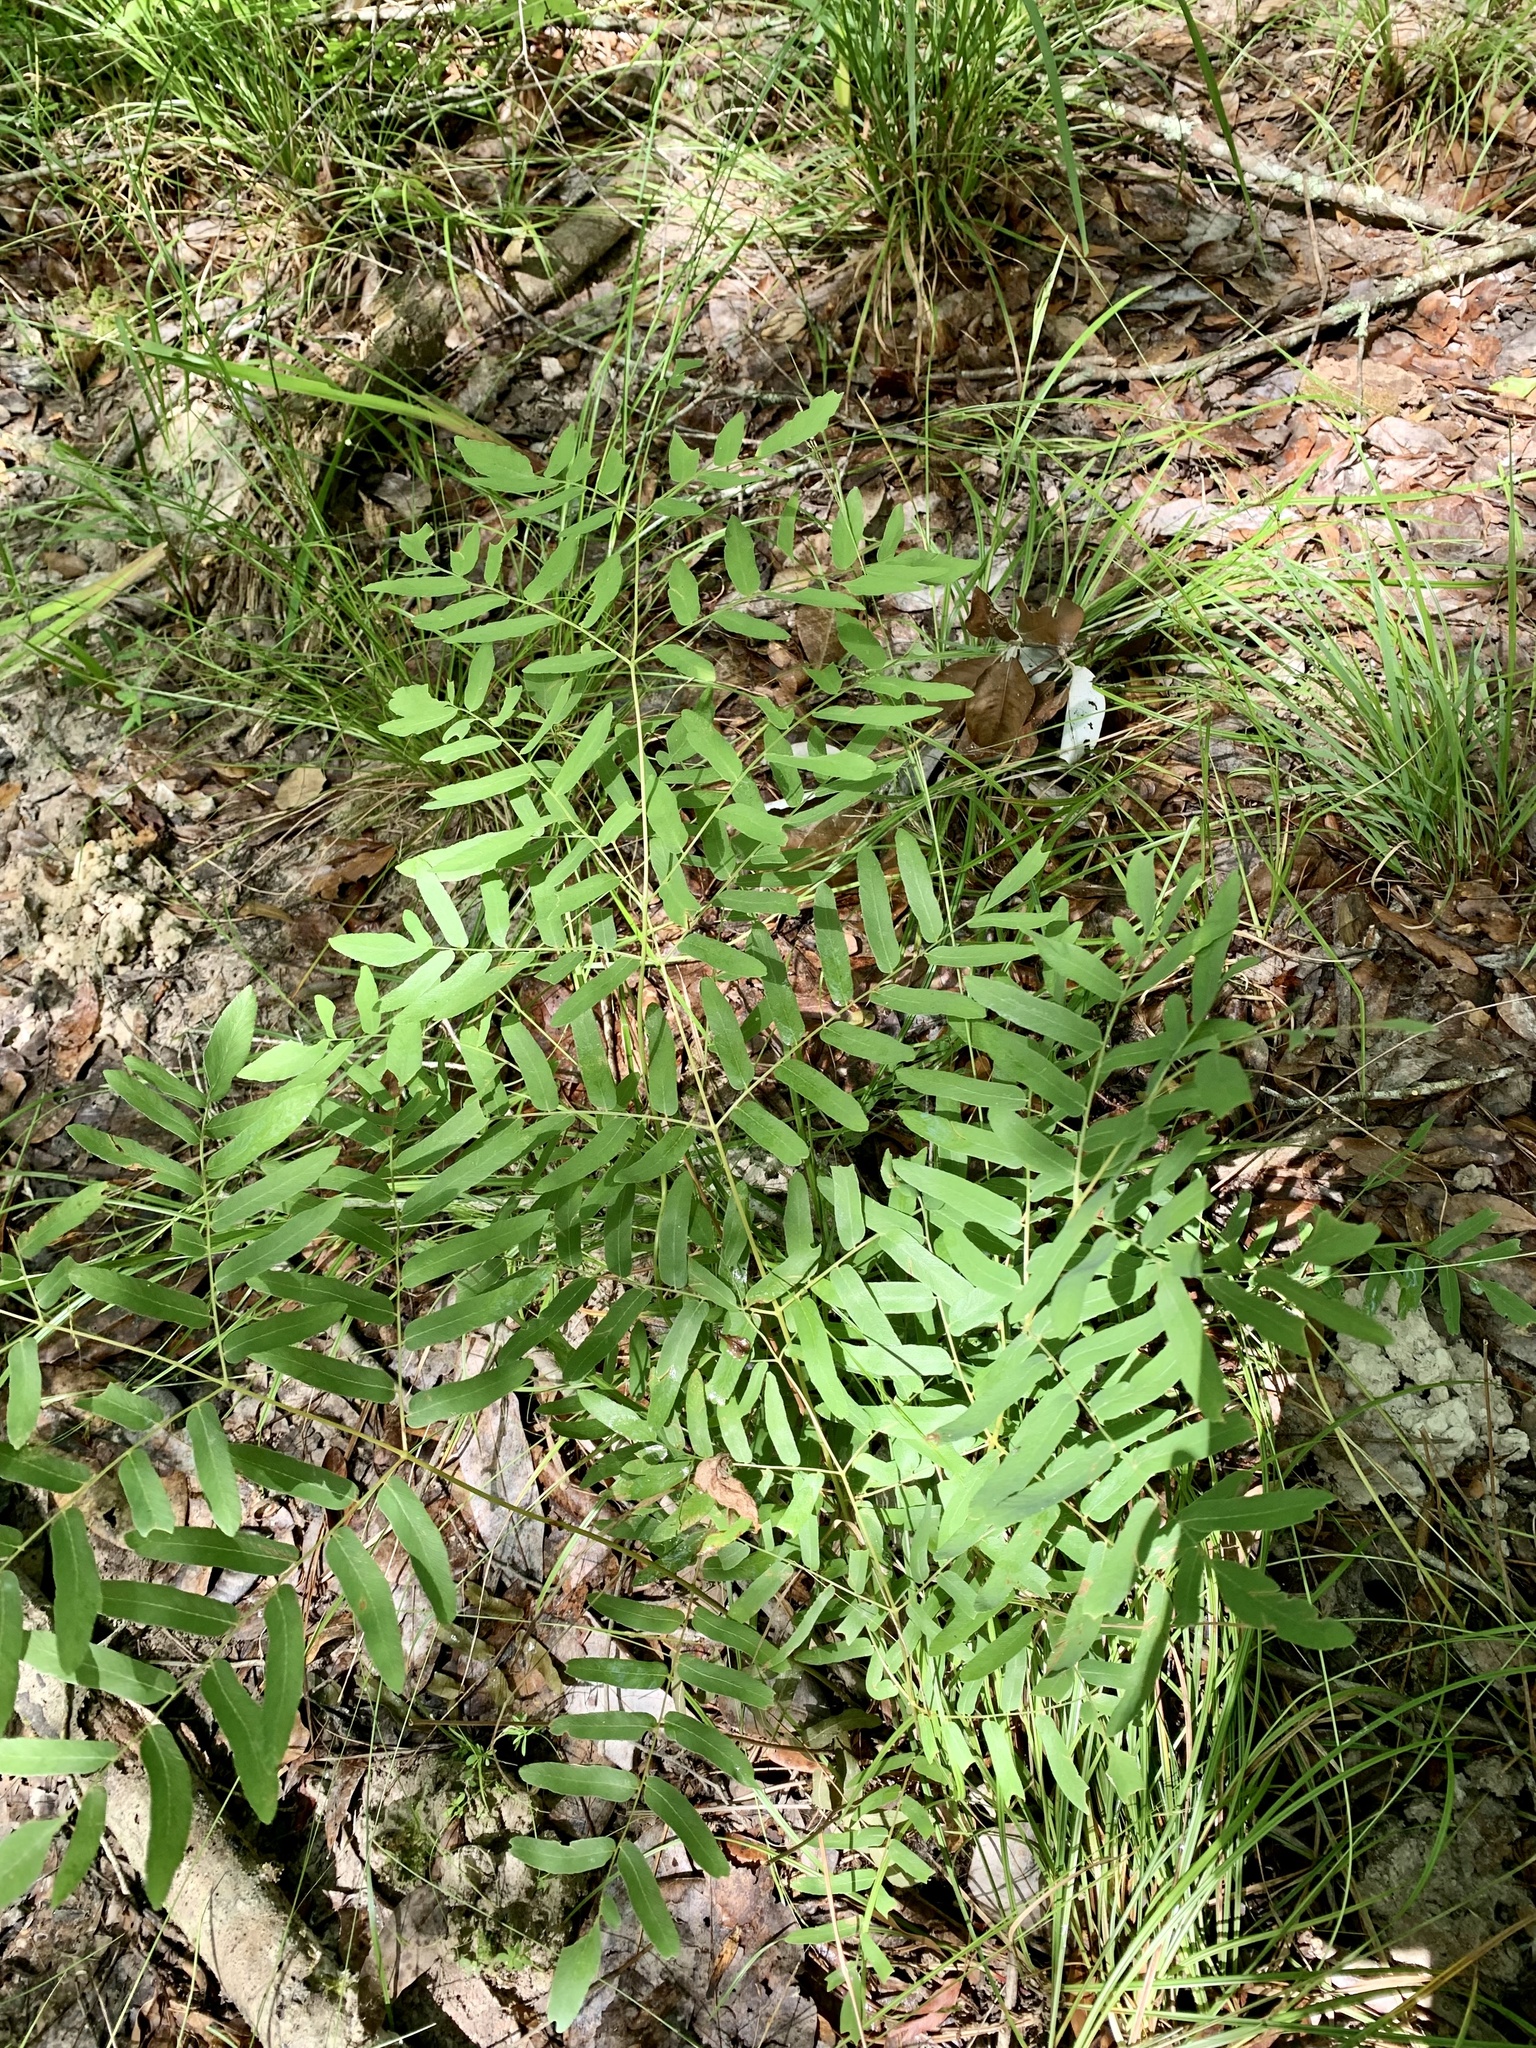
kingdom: Plantae
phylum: Tracheophyta
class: Polypodiopsida
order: Osmundales
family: Osmundaceae
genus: Osmunda
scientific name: Osmunda spectabilis
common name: American royal fern
